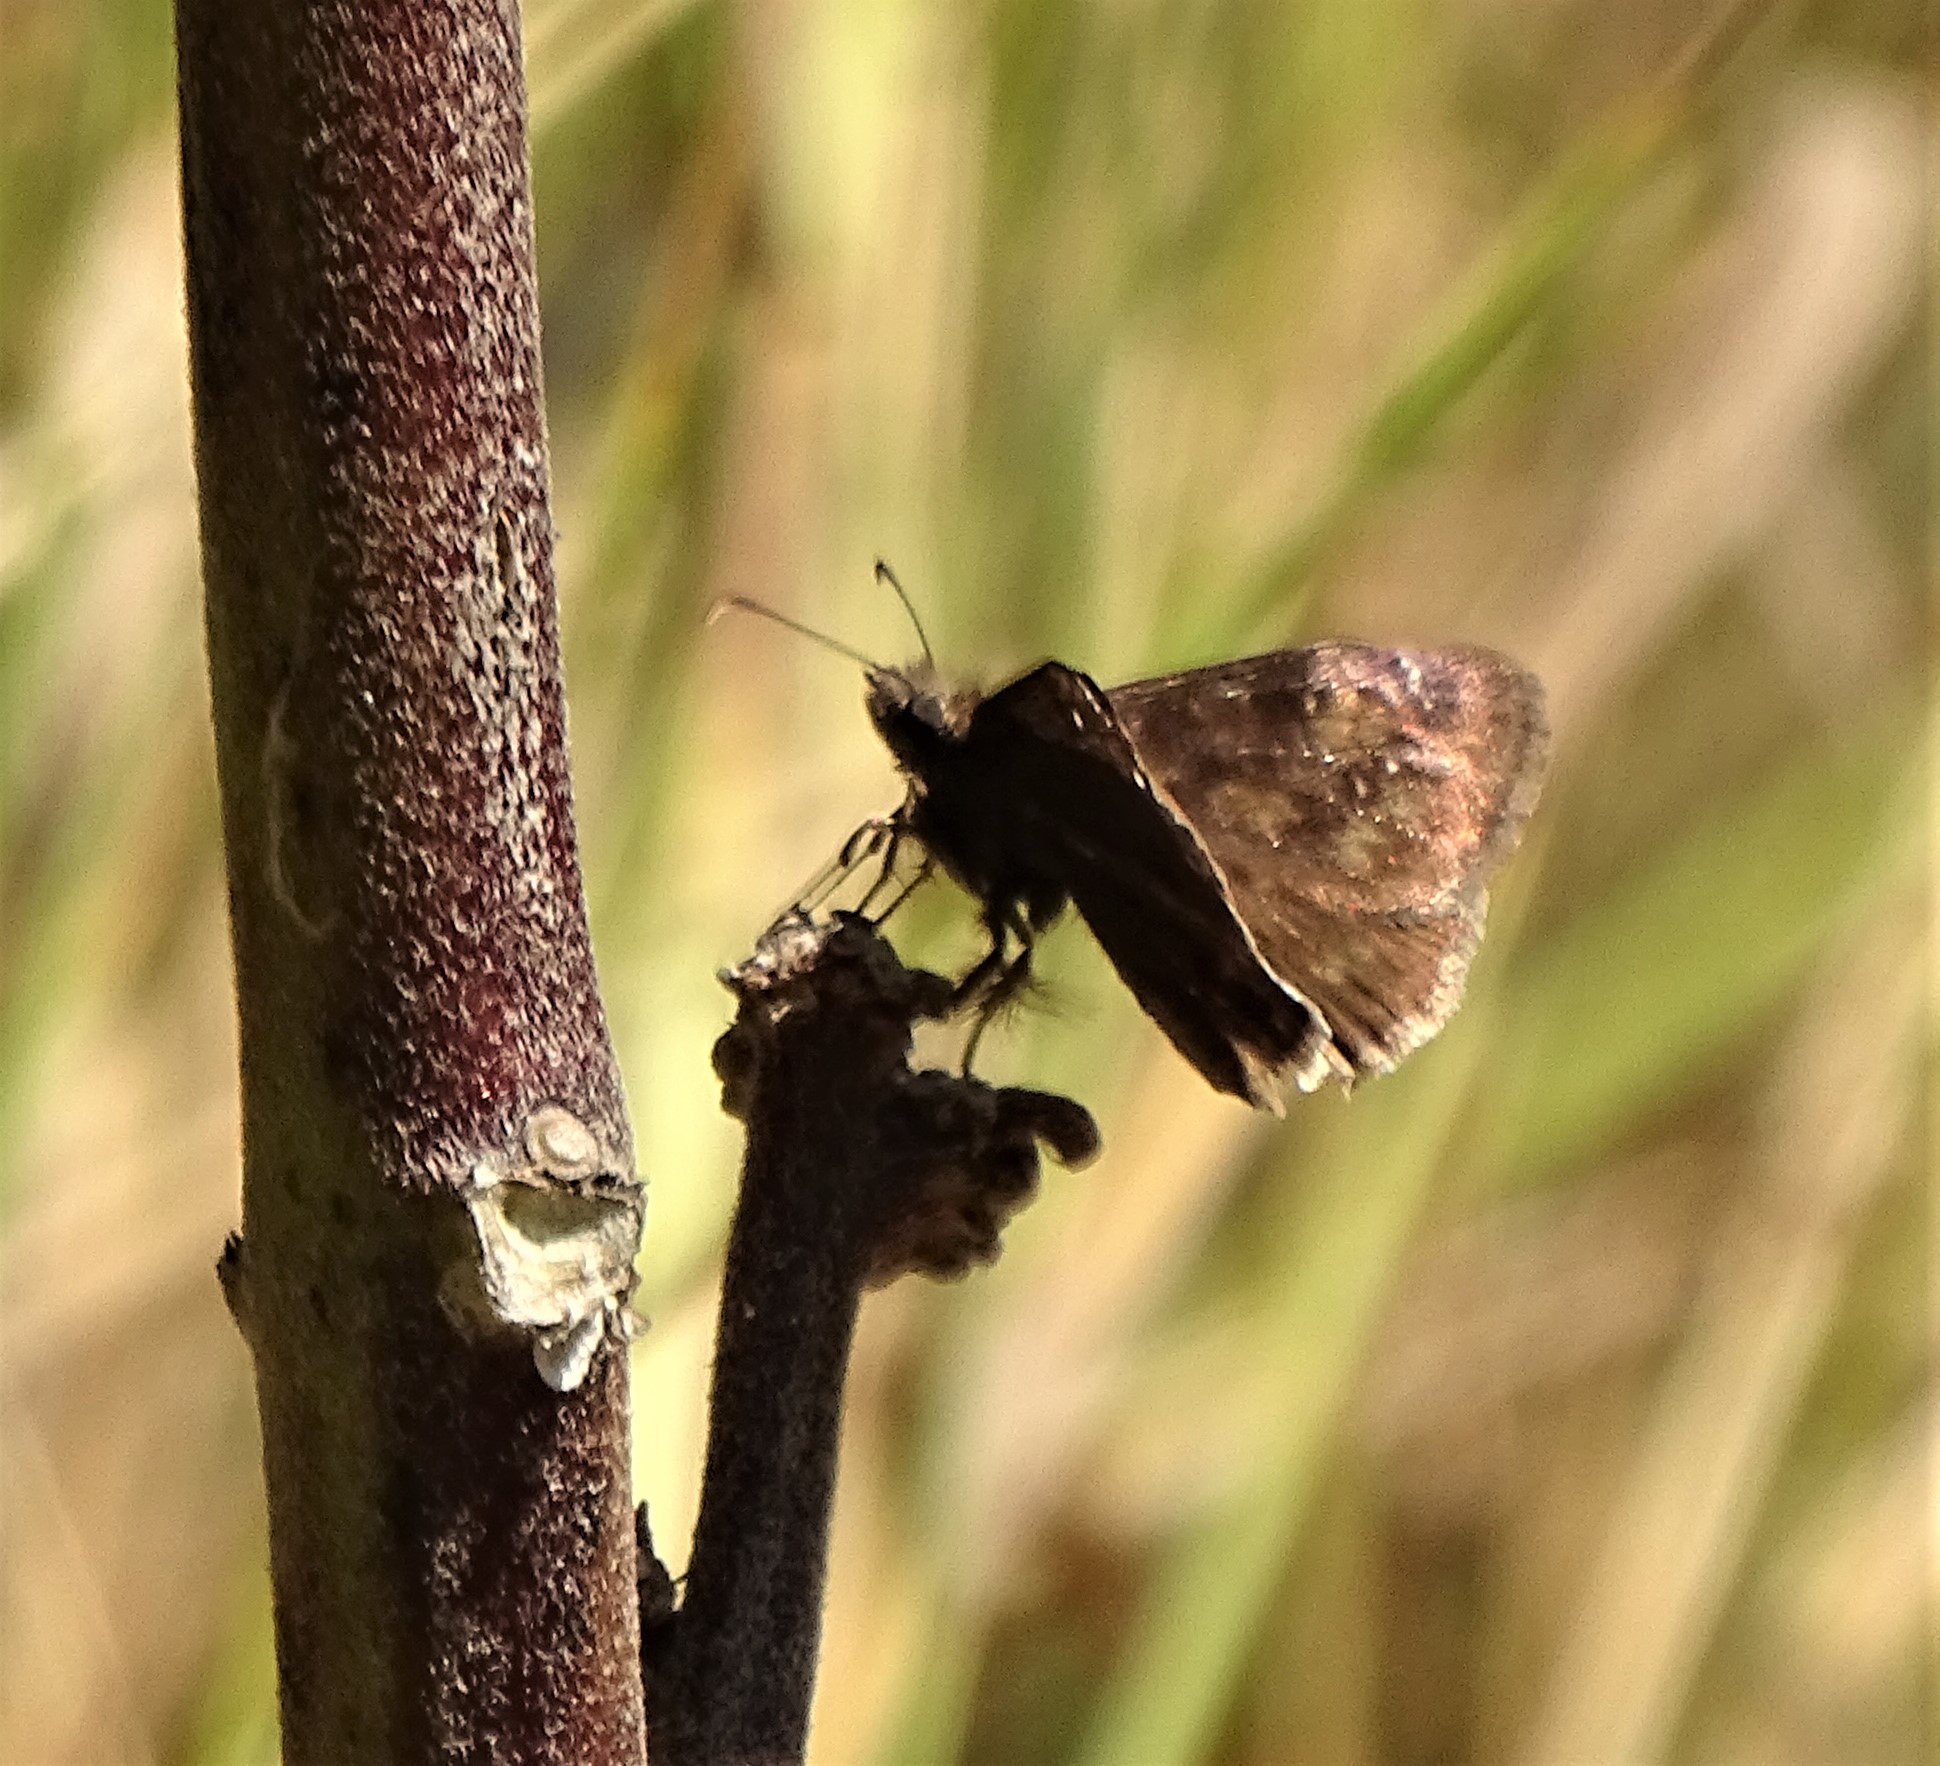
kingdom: Animalia
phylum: Arthropoda
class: Insecta
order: Lepidoptera
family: Hesperiidae
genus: Erynnis
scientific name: Erynnis baptisiae
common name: Wild indigo duskywing
